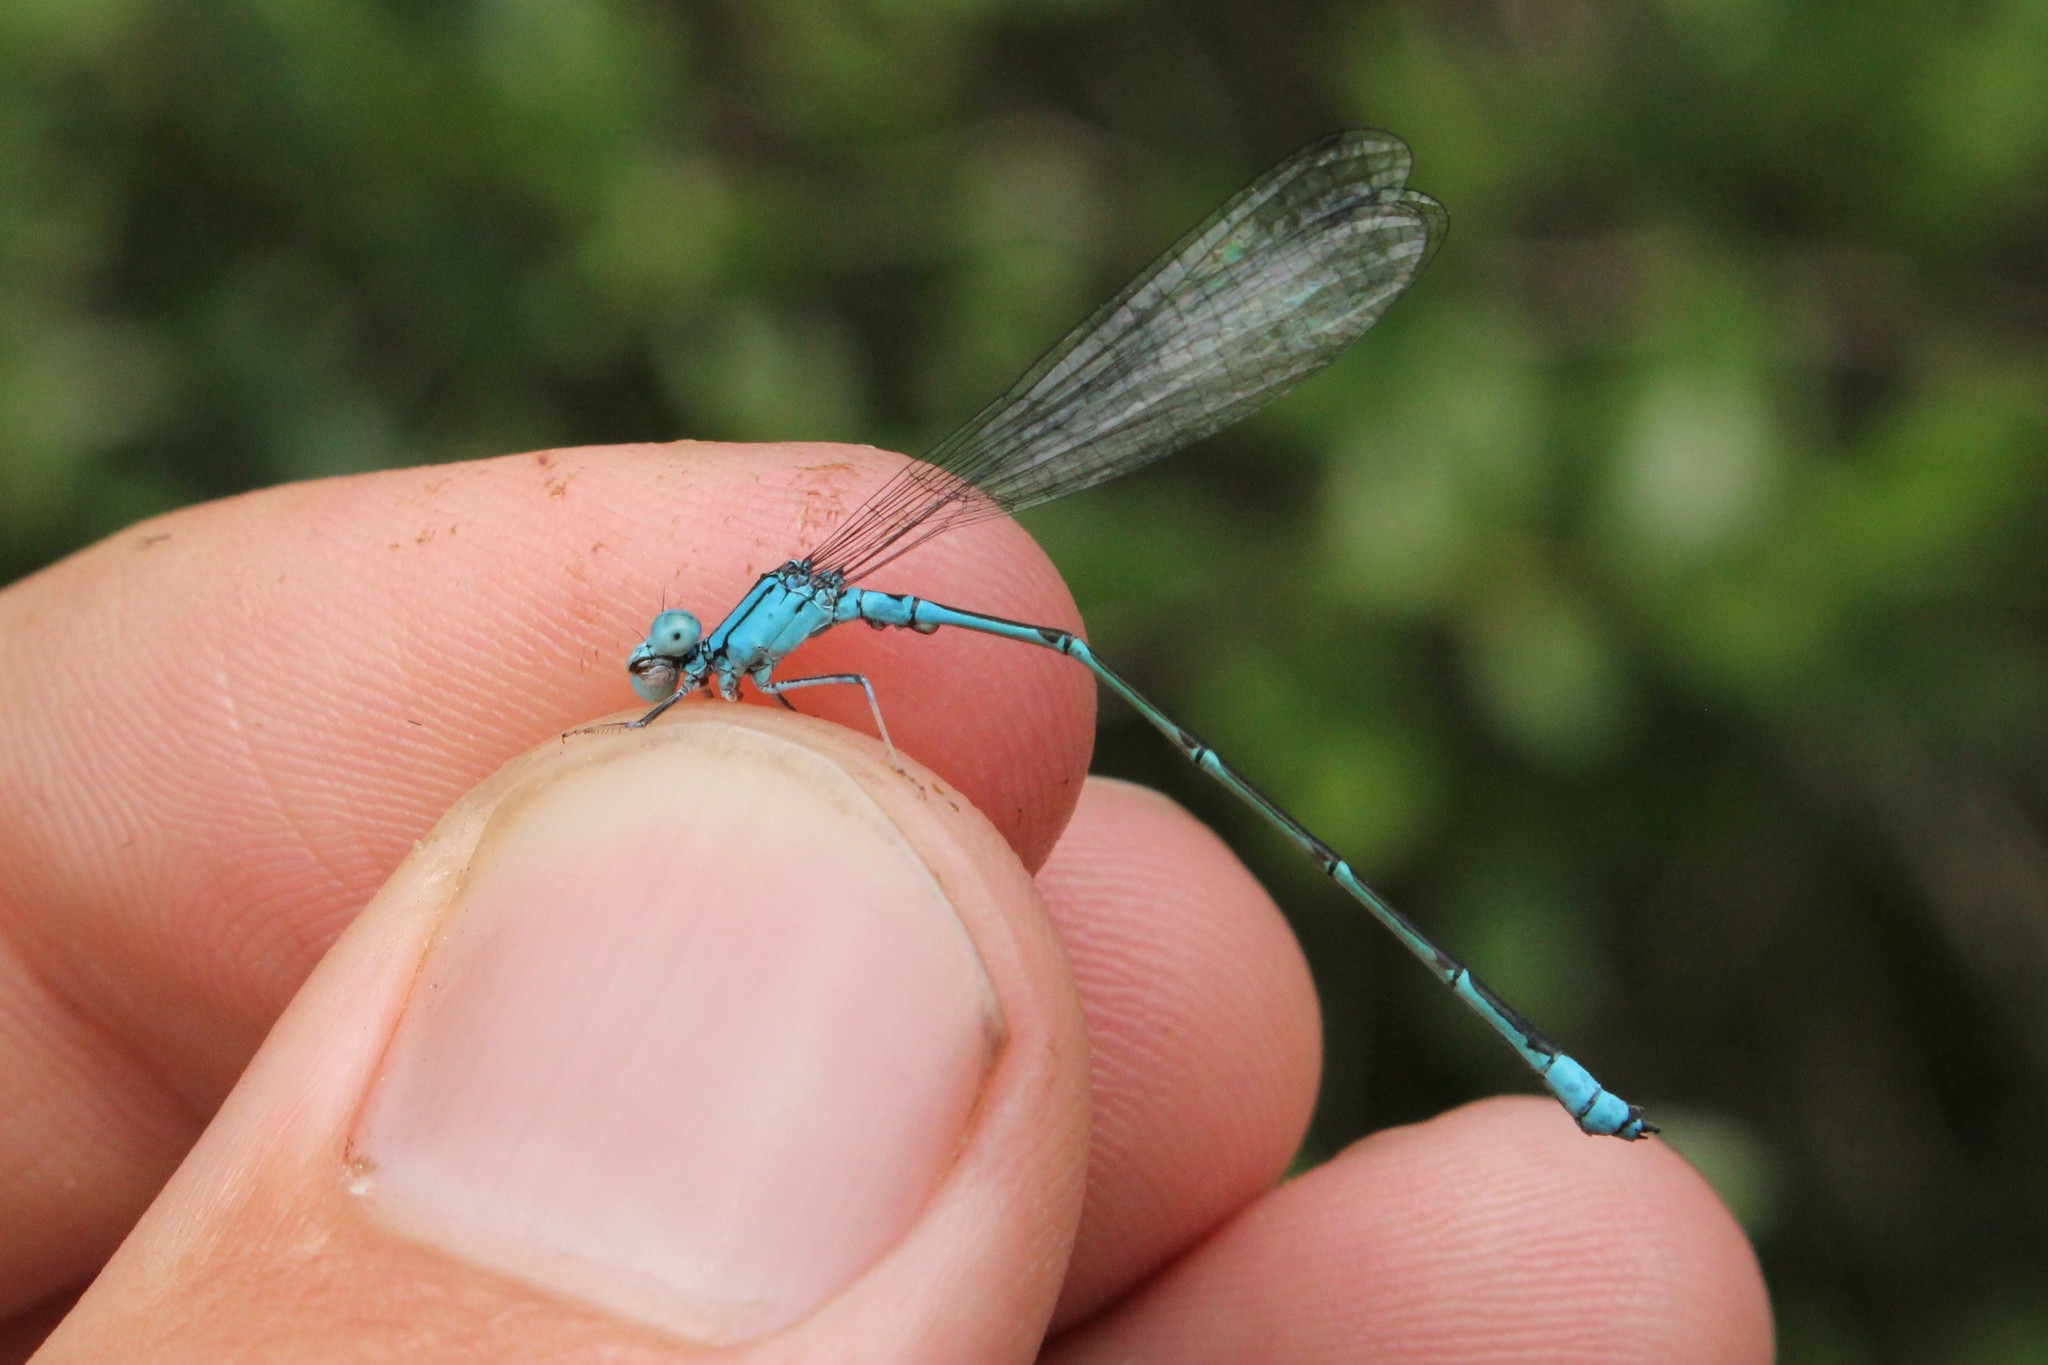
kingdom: Animalia
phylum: Arthropoda
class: Insecta
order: Odonata
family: Coenagrionidae
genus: Enallagma
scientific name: Enallagma traviatum
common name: Slender bluet
